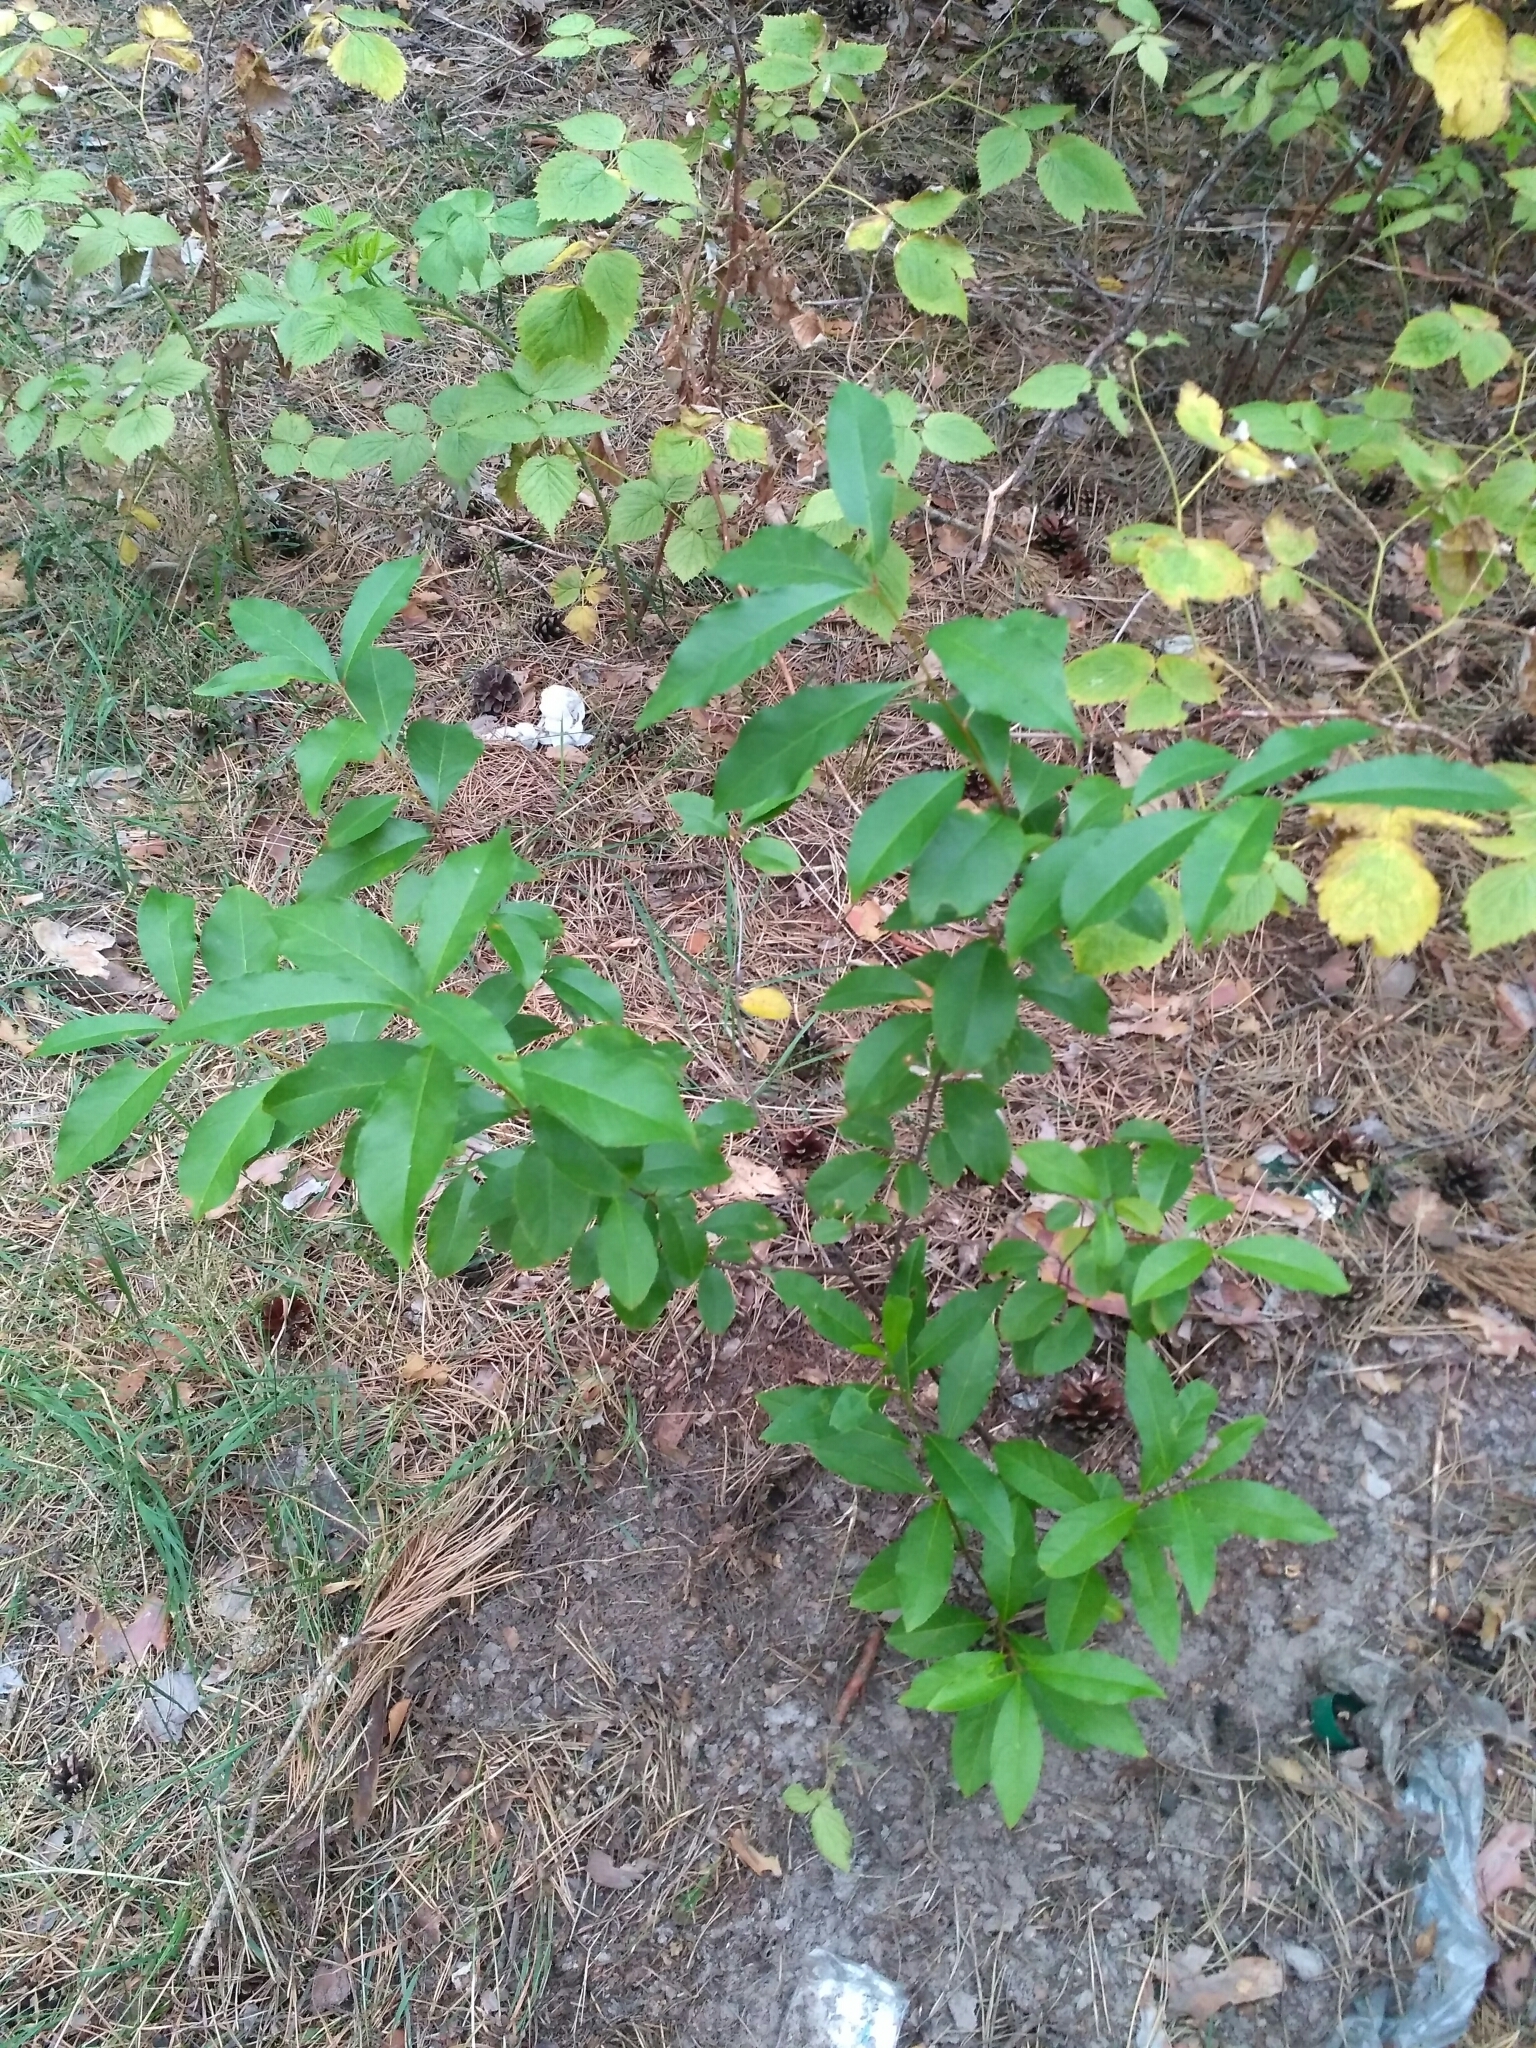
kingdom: Plantae
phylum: Tracheophyta
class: Magnoliopsida
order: Rosales
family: Rosaceae
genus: Prunus
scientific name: Prunus serotina
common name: Black cherry
